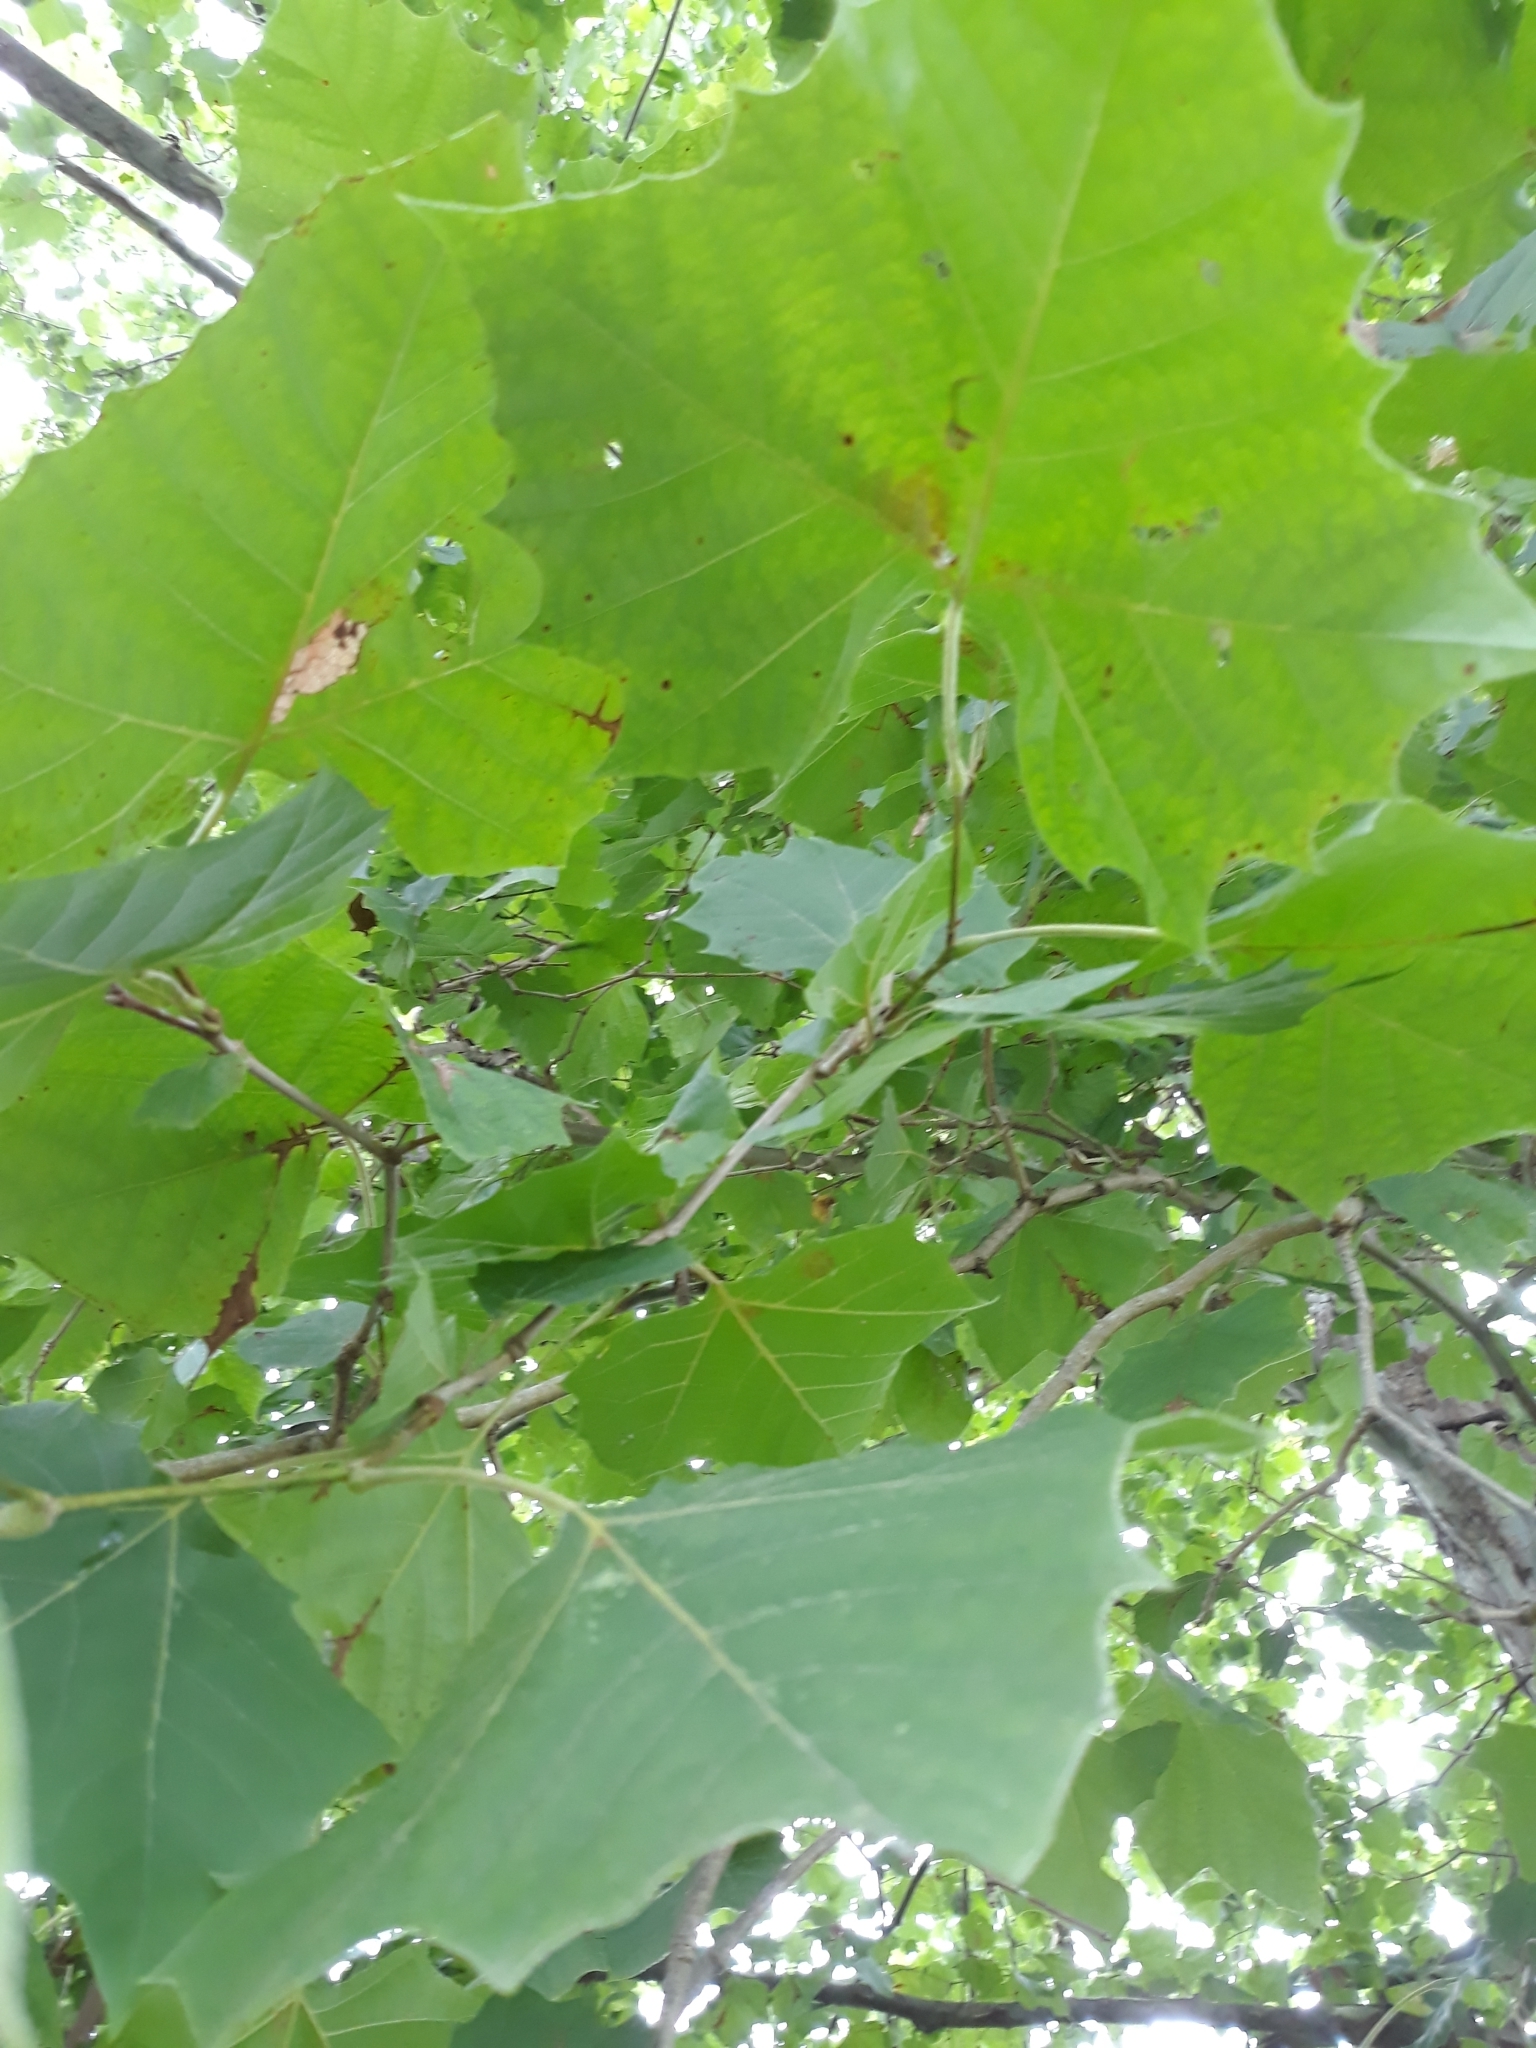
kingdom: Plantae
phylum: Tracheophyta
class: Magnoliopsida
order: Proteales
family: Platanaceae
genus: Platanus
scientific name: Platanus occidentalis
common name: American sycamore
